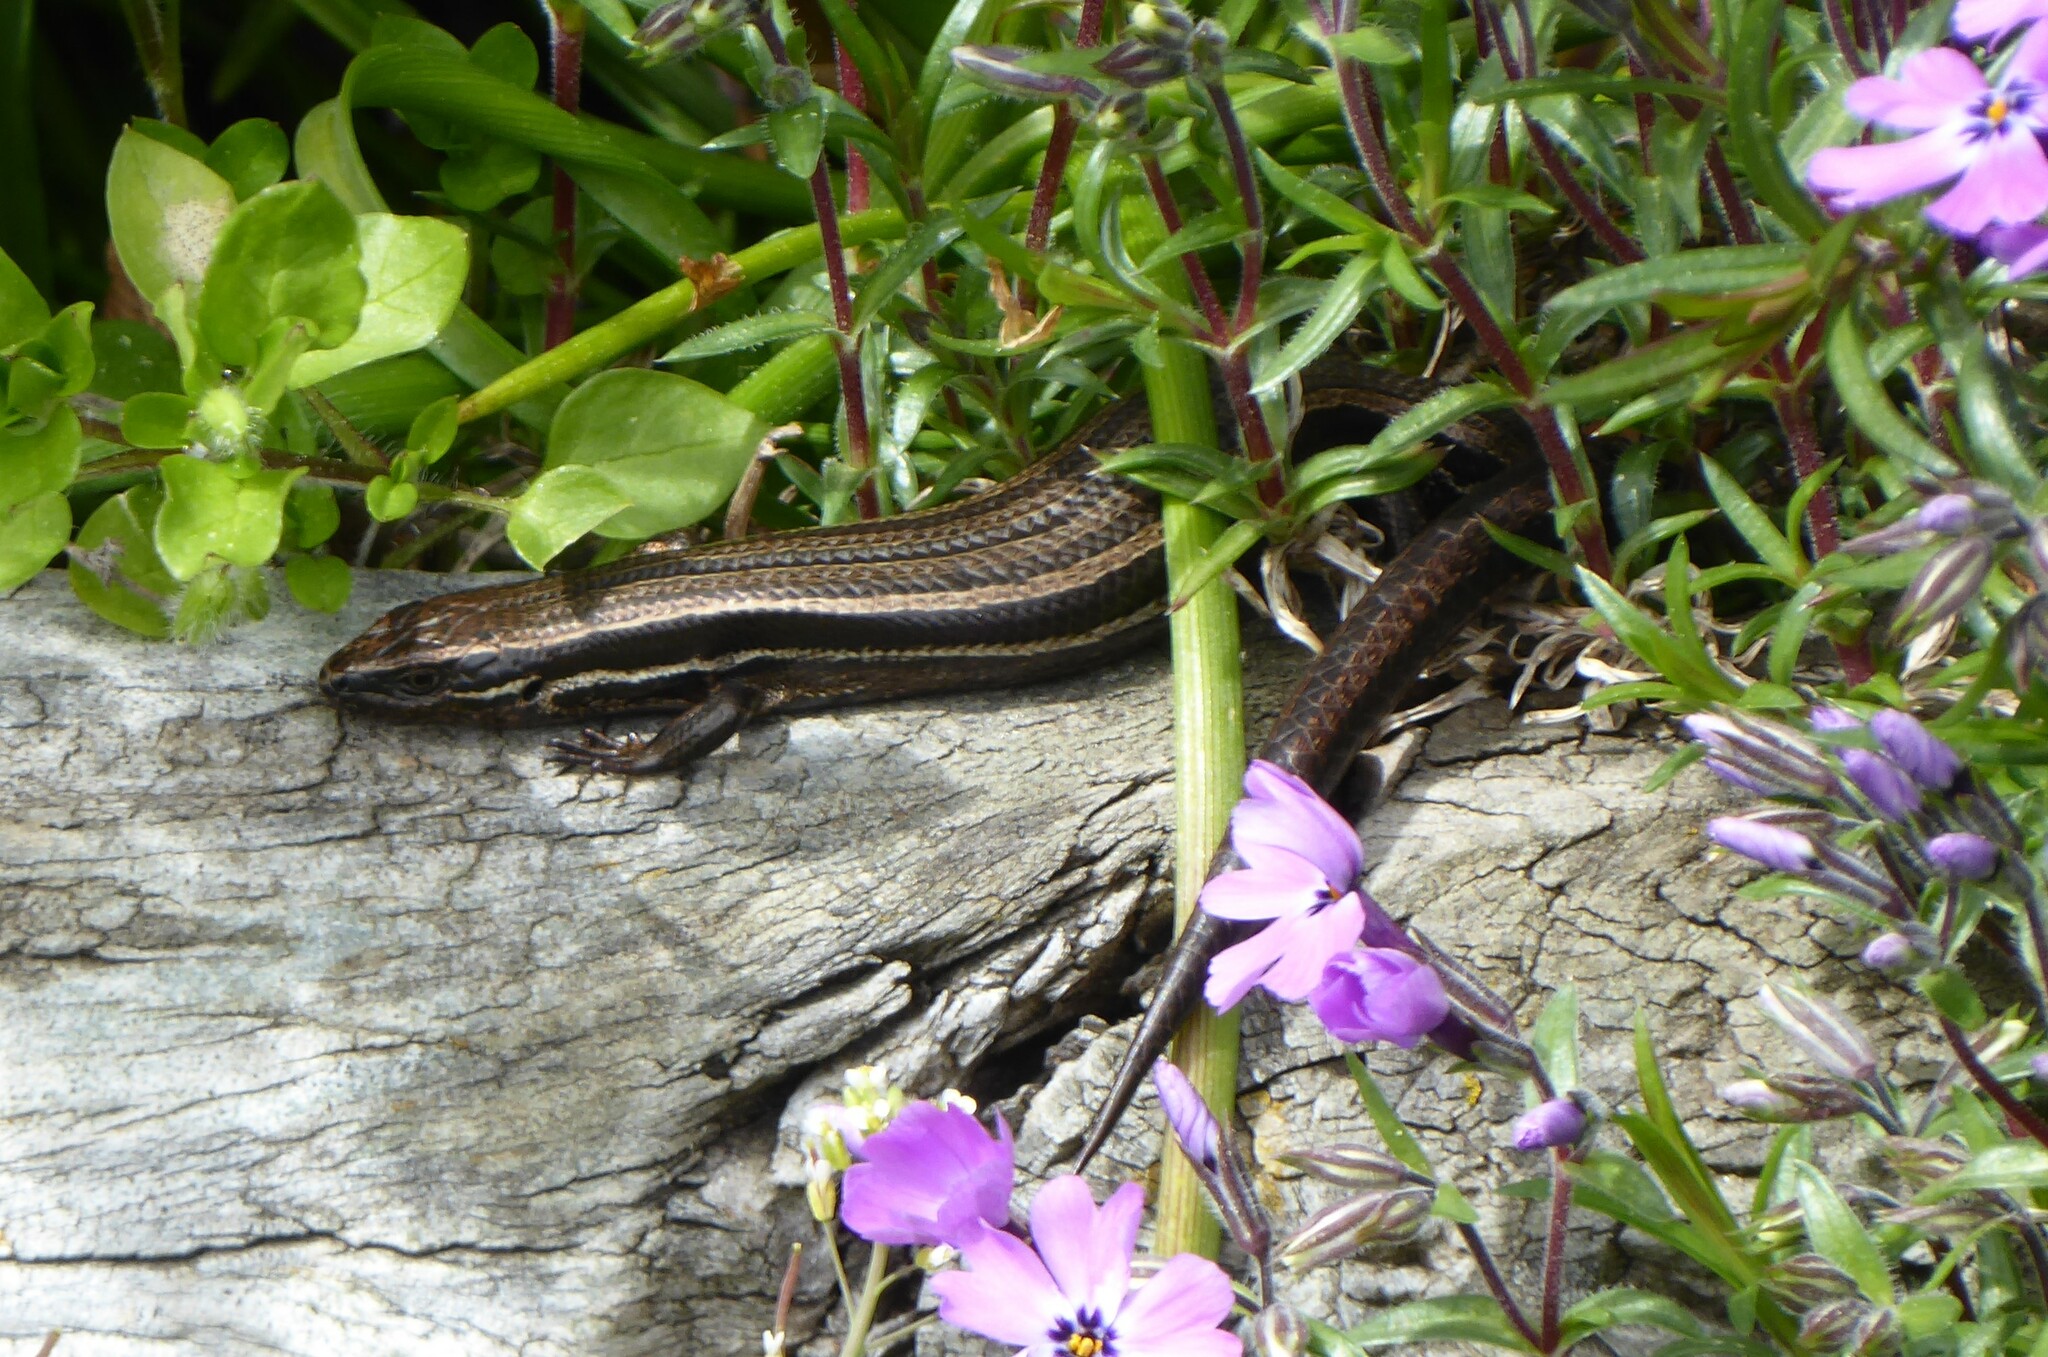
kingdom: Animalia
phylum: Chordata
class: Squamata
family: Scincidae
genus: Oligosoma
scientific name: Oligosoma polychroma
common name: Common new zealand skink
